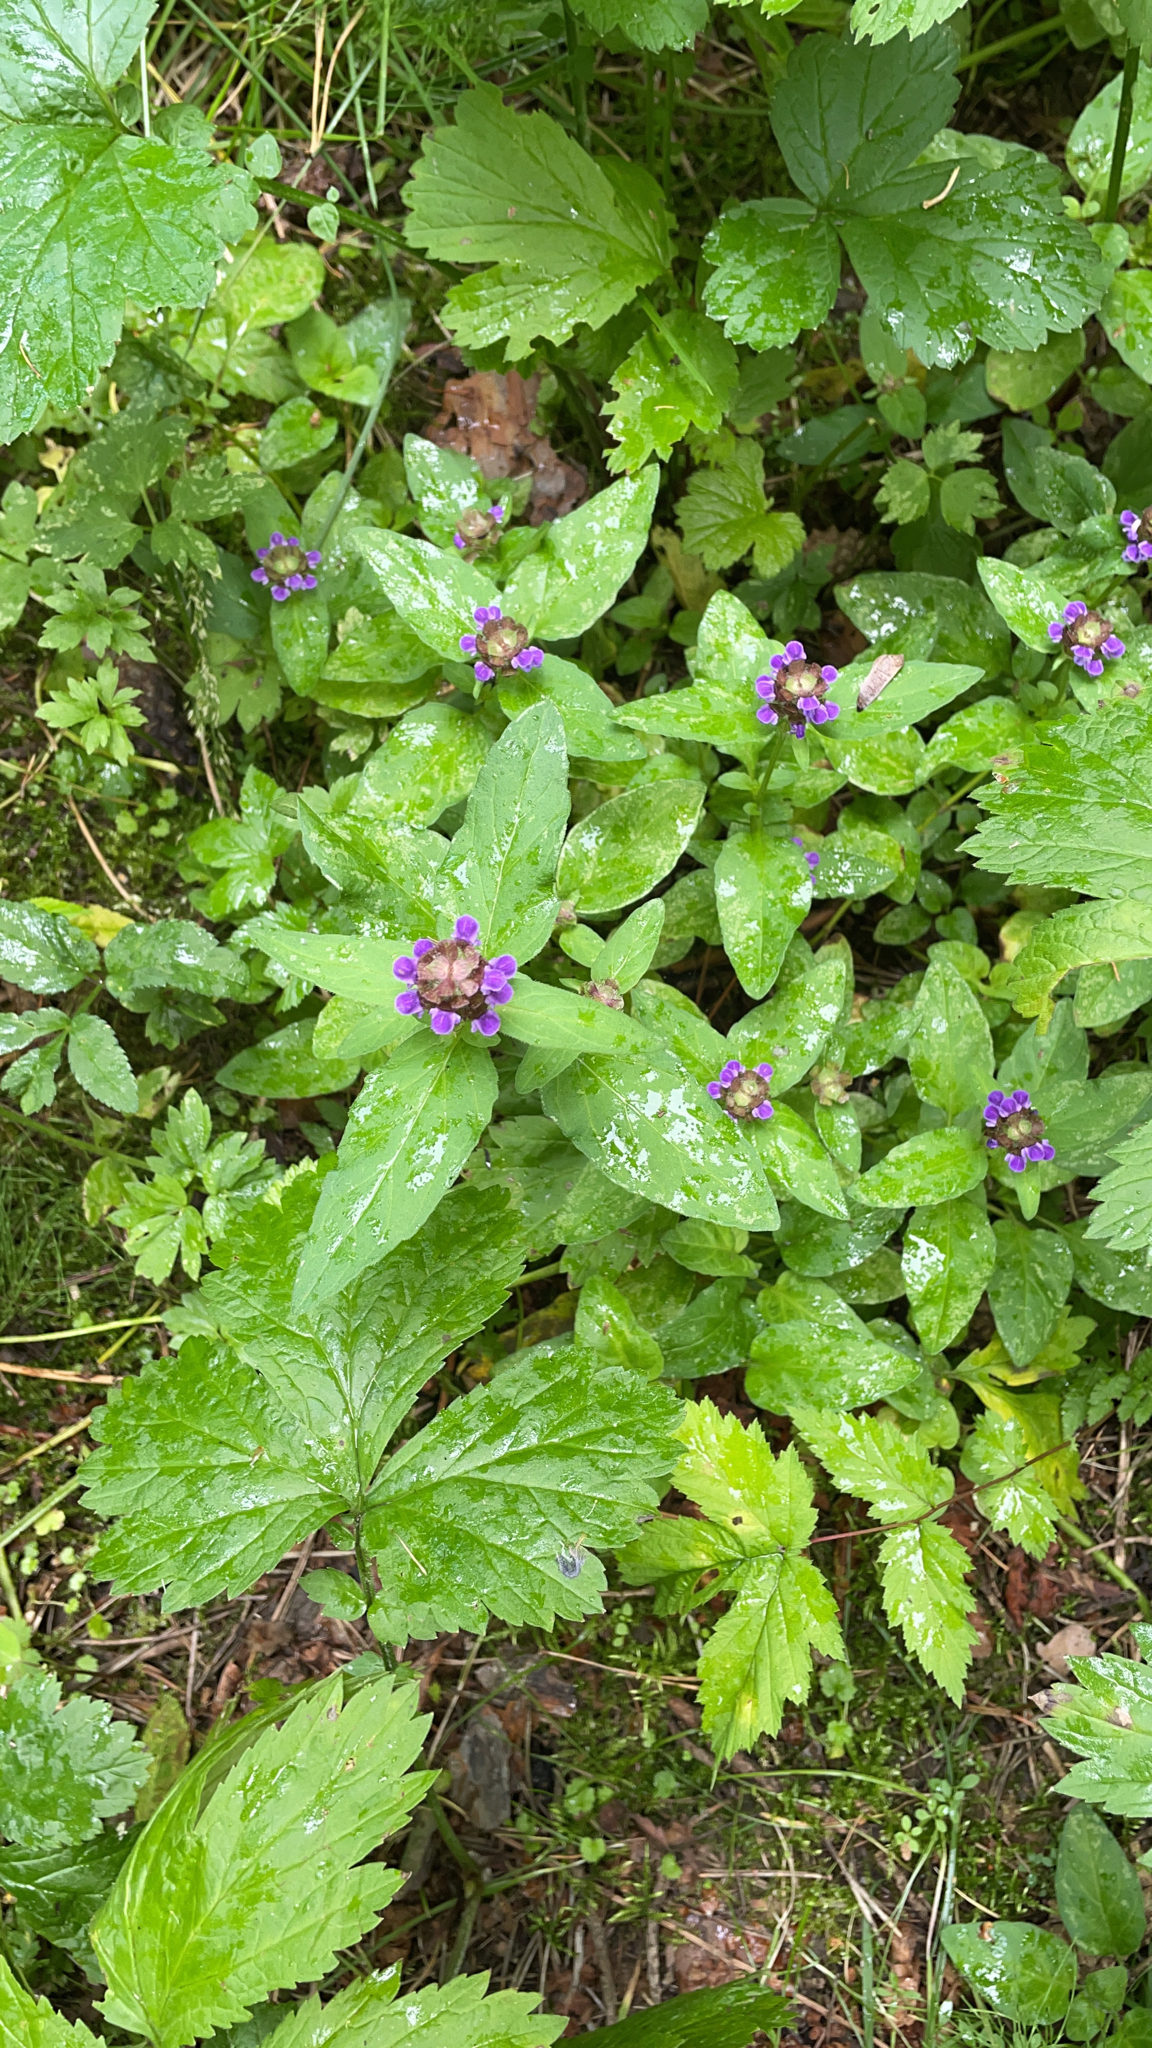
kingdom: Plantae
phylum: Tracheophyta
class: Magnoliopsida
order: Lamiales
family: Lamiaceae
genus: Prunella
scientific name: Prunella vulgaris
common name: Heal-all
